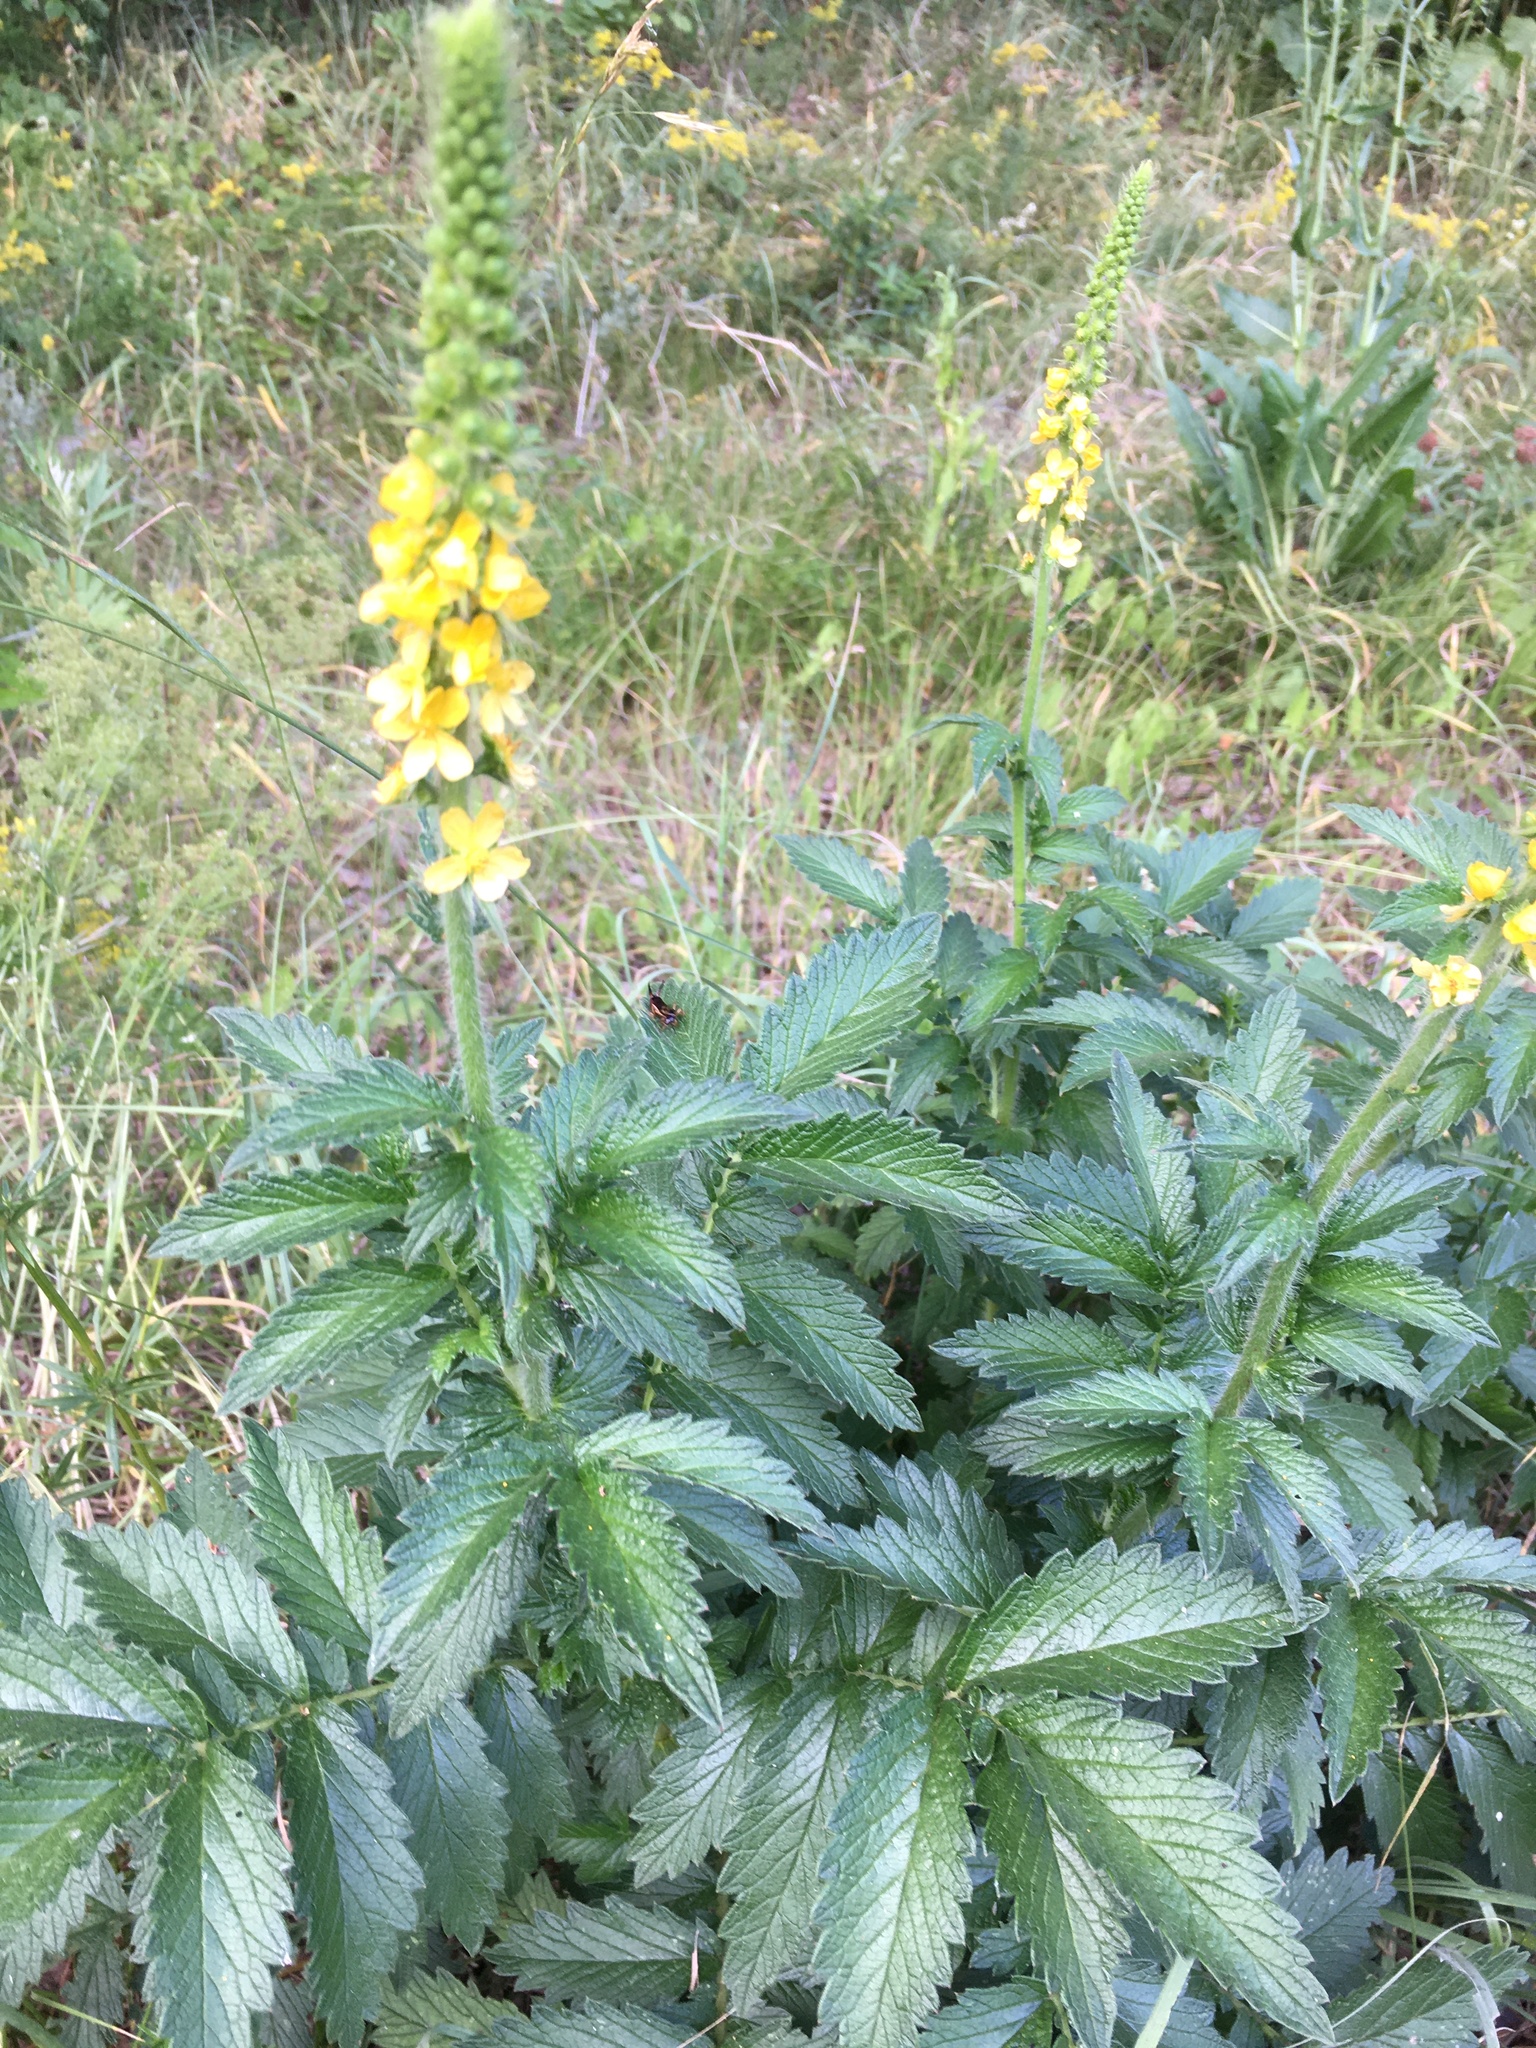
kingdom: Plantae
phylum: Tracheophyta
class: Magnoliopsida
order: Rosales
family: Rosaceae
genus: Agrimonia
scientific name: Agrimonia eupatoria
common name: Agrimony
